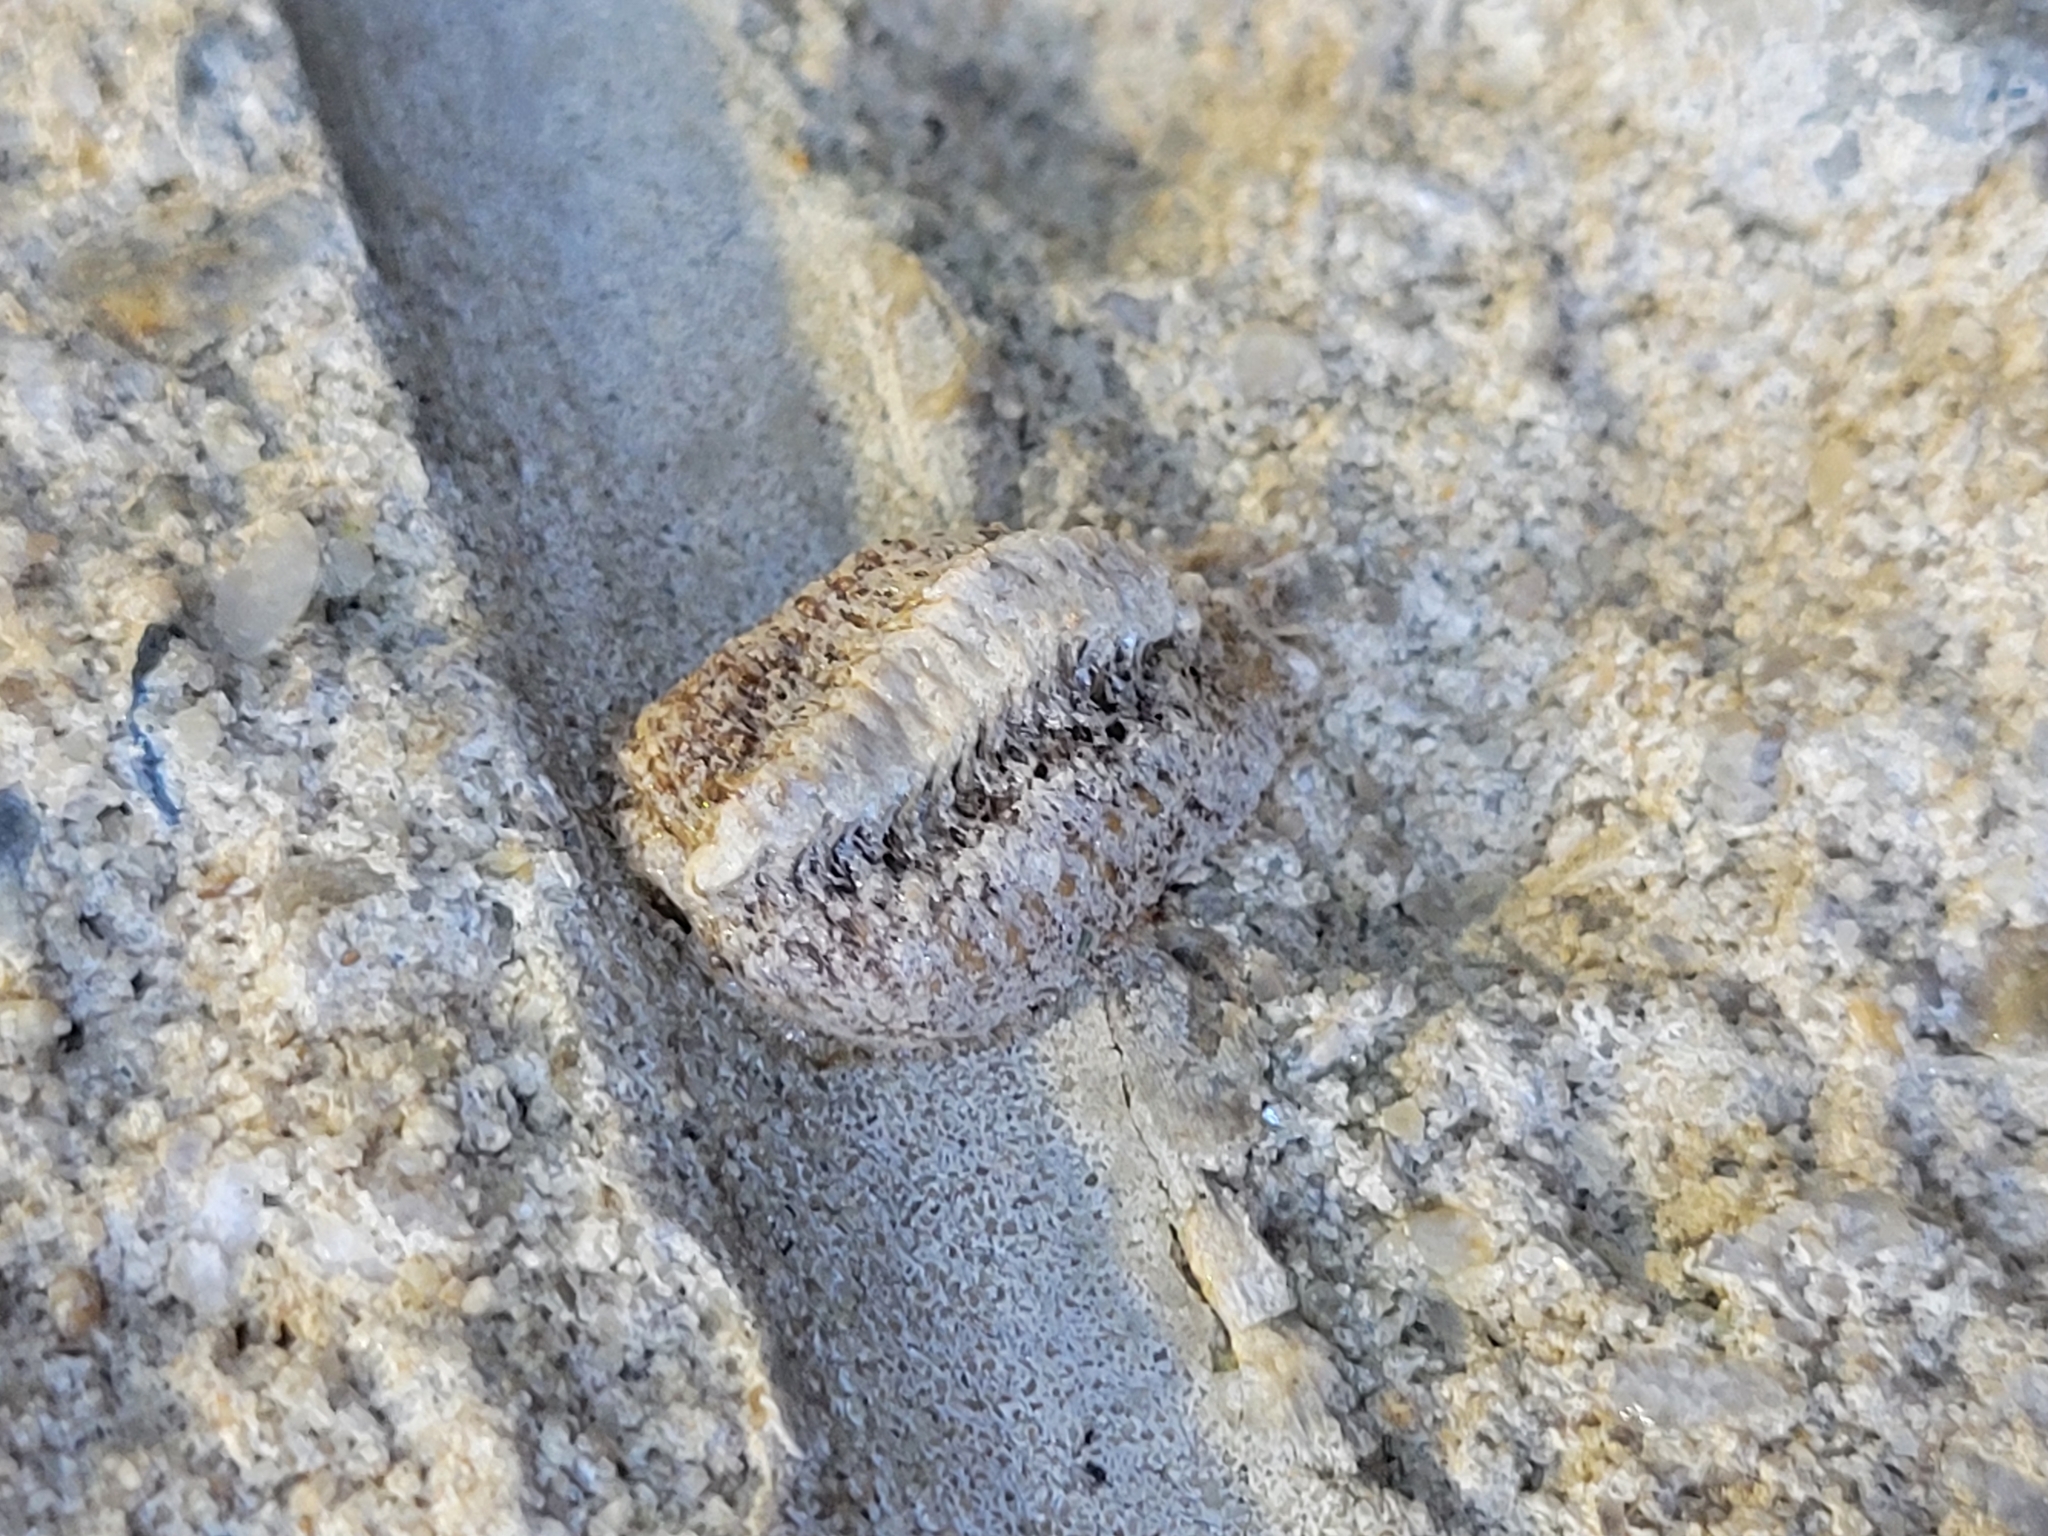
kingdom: Animalia
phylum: Arthropoda
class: Insecta
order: Mantodea
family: Mantidae
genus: Stagmomantis
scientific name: Stagmomantis carolina
